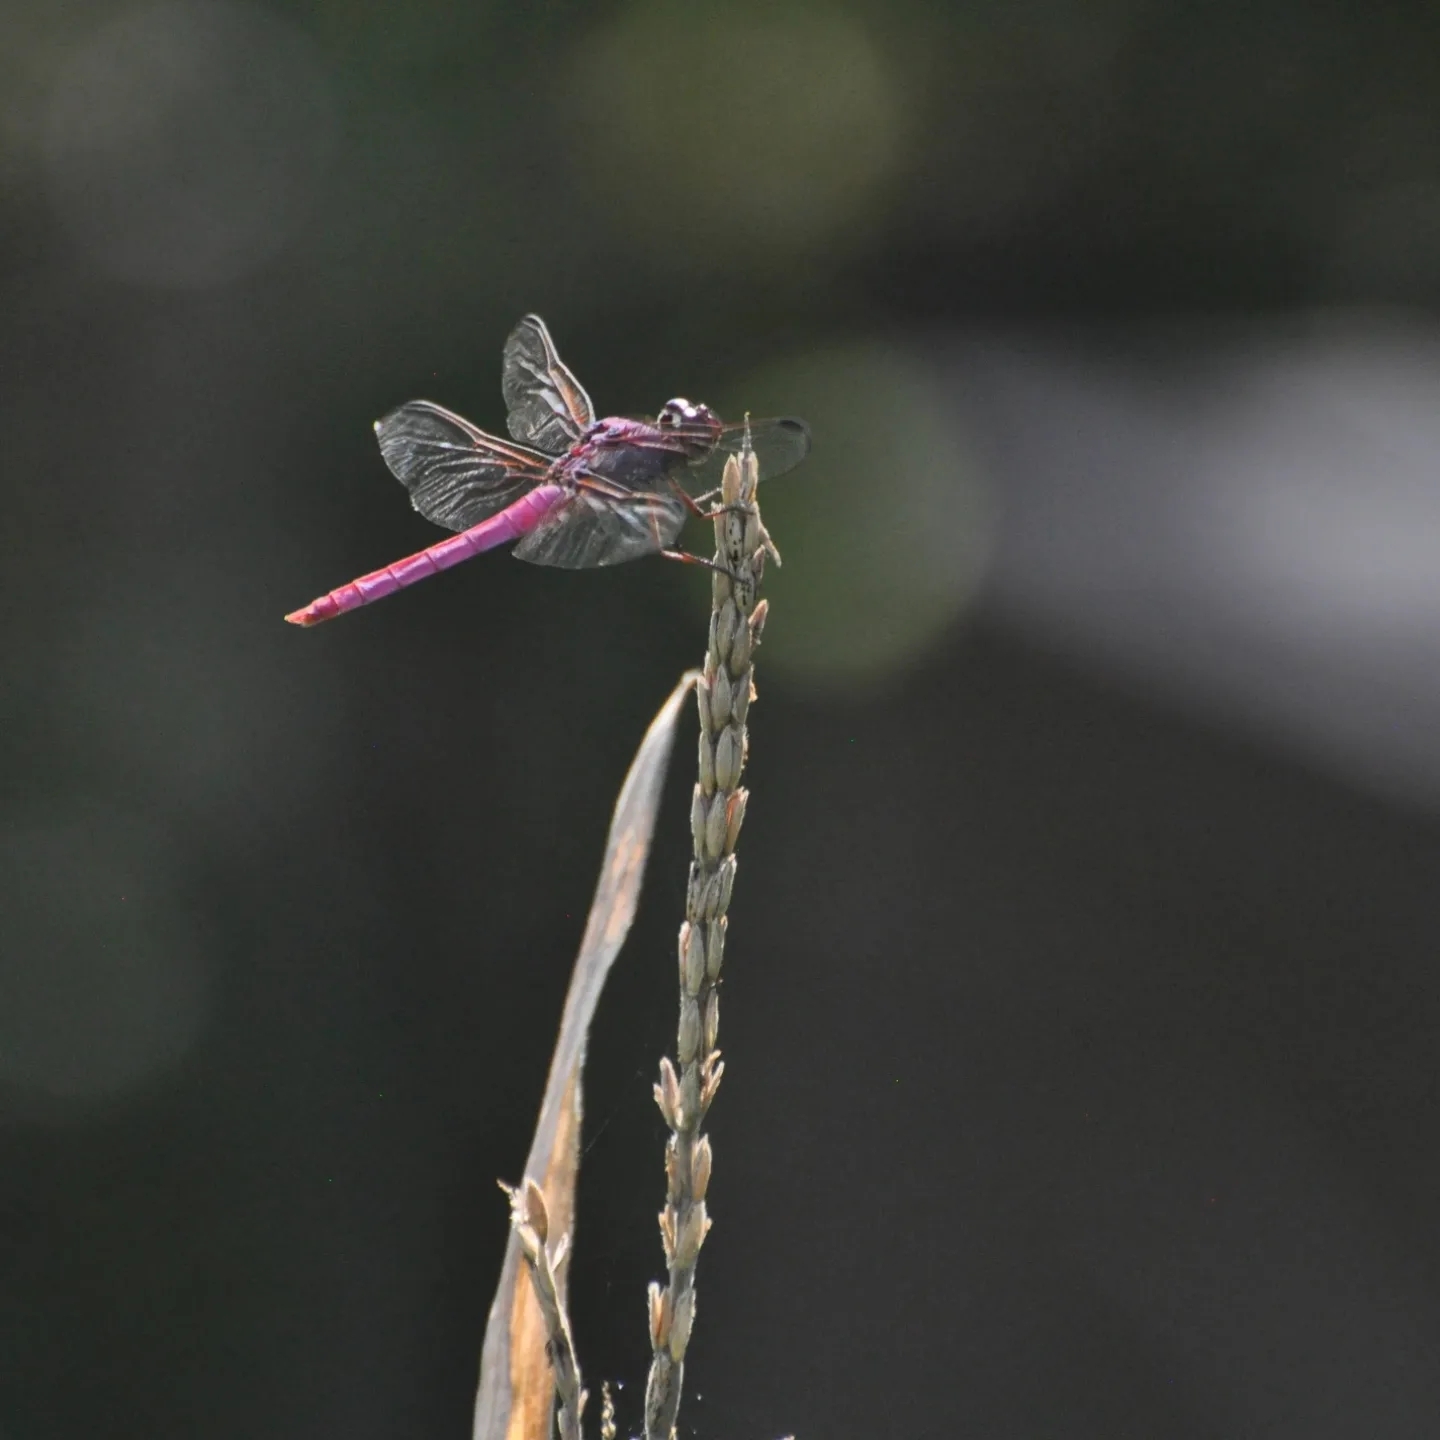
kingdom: Animalia
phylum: Arthropoda
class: Insecta
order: Odonata
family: Libellulidae
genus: Orthemis
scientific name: Orthemis ferruginea
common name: Roseate skimmer
